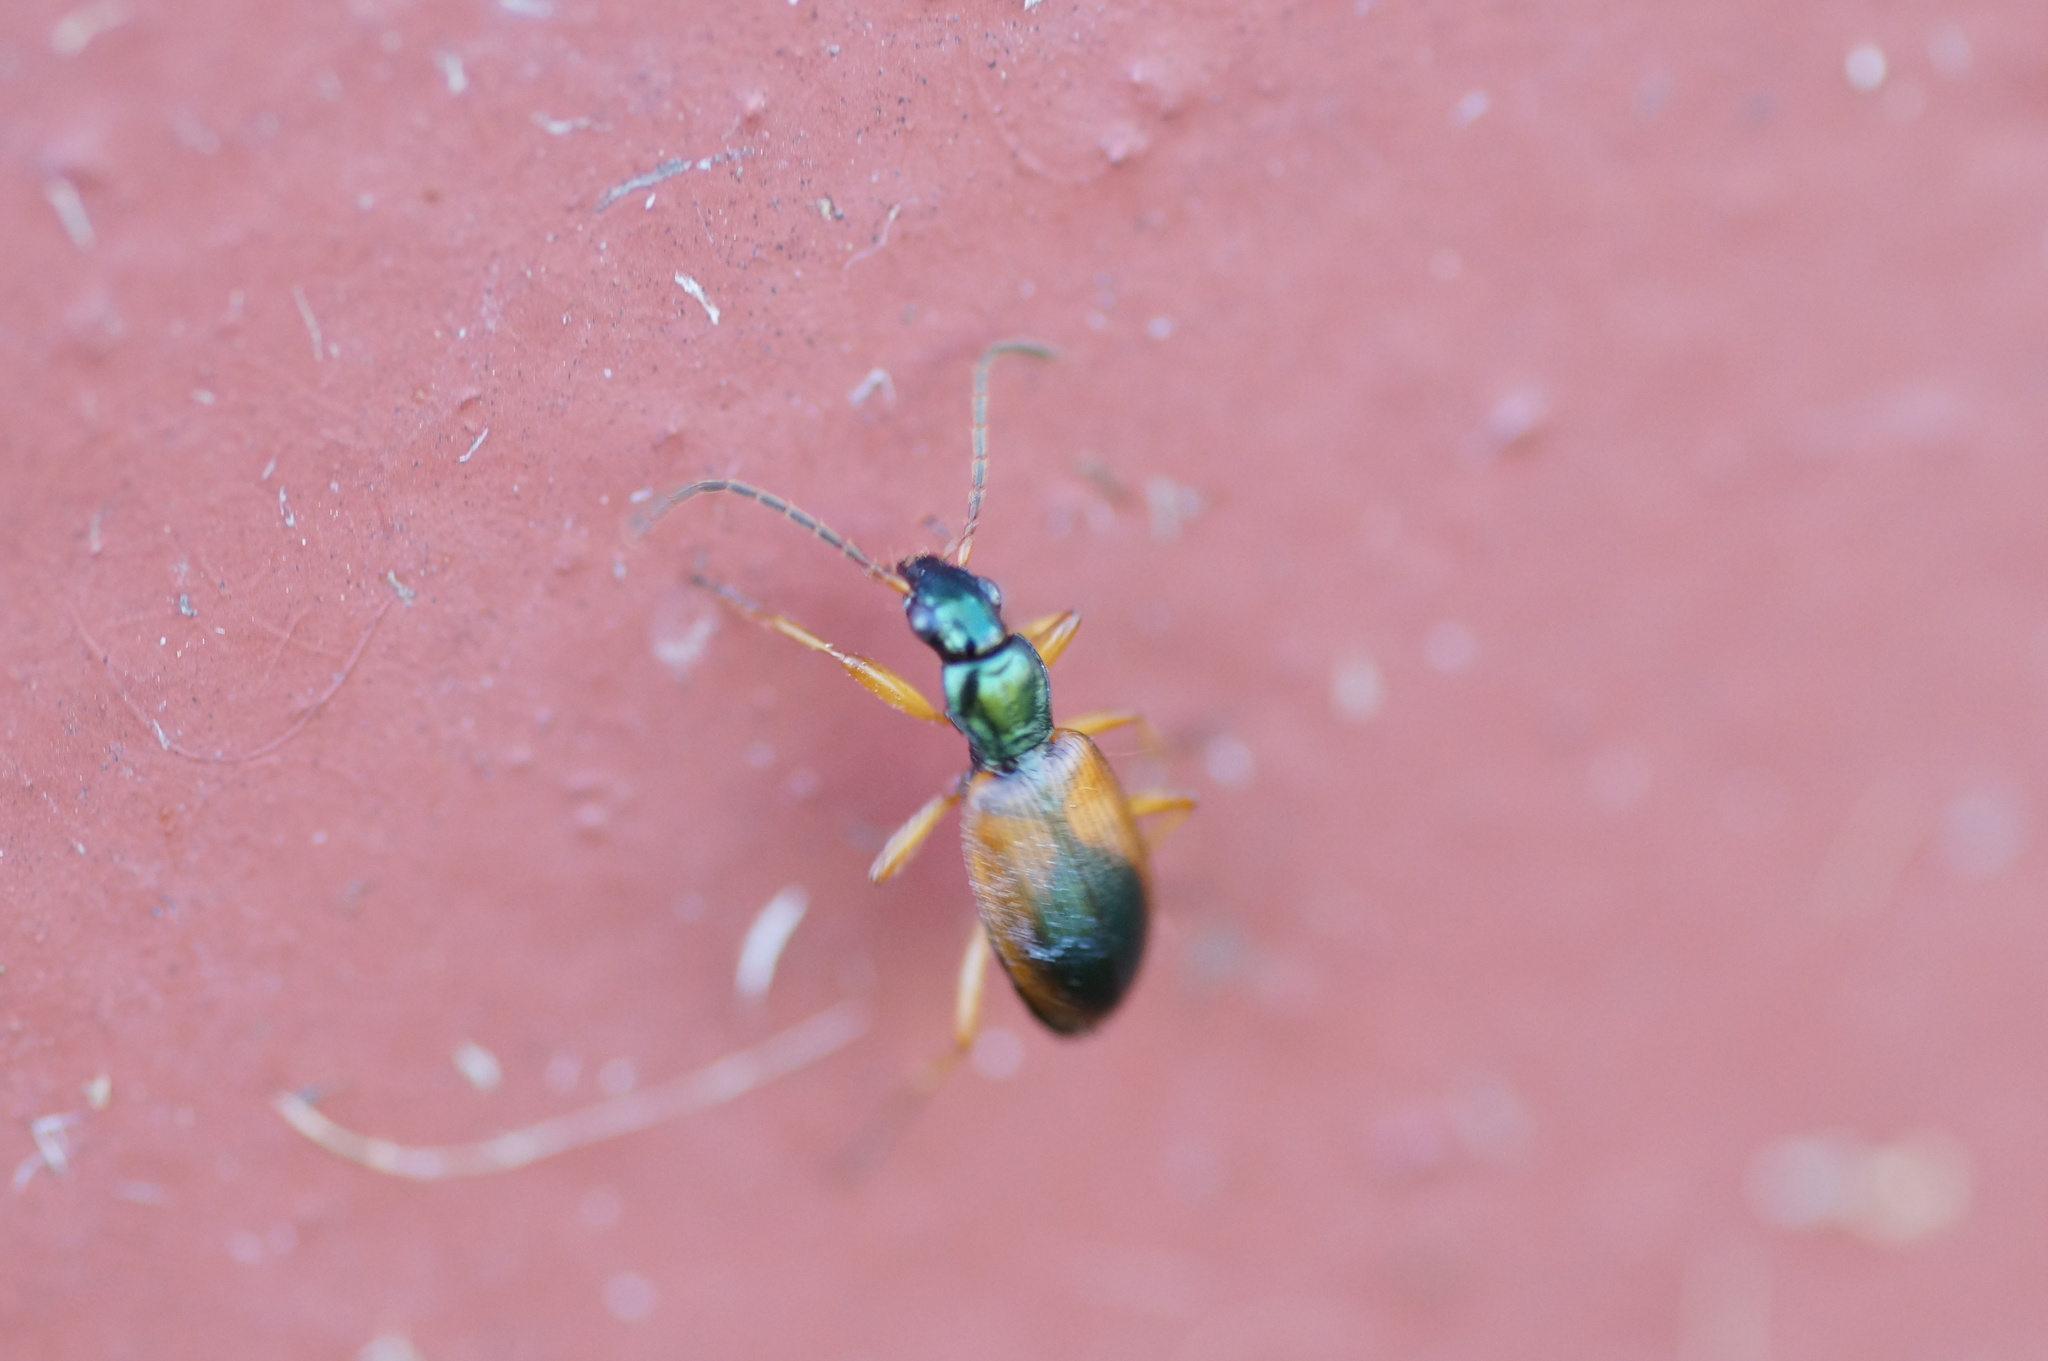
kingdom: Animalia
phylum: Arthropoda
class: Insecta
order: Coleoptera
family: Carabidae
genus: Anchomenus
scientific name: Anchomenus dorsalis
